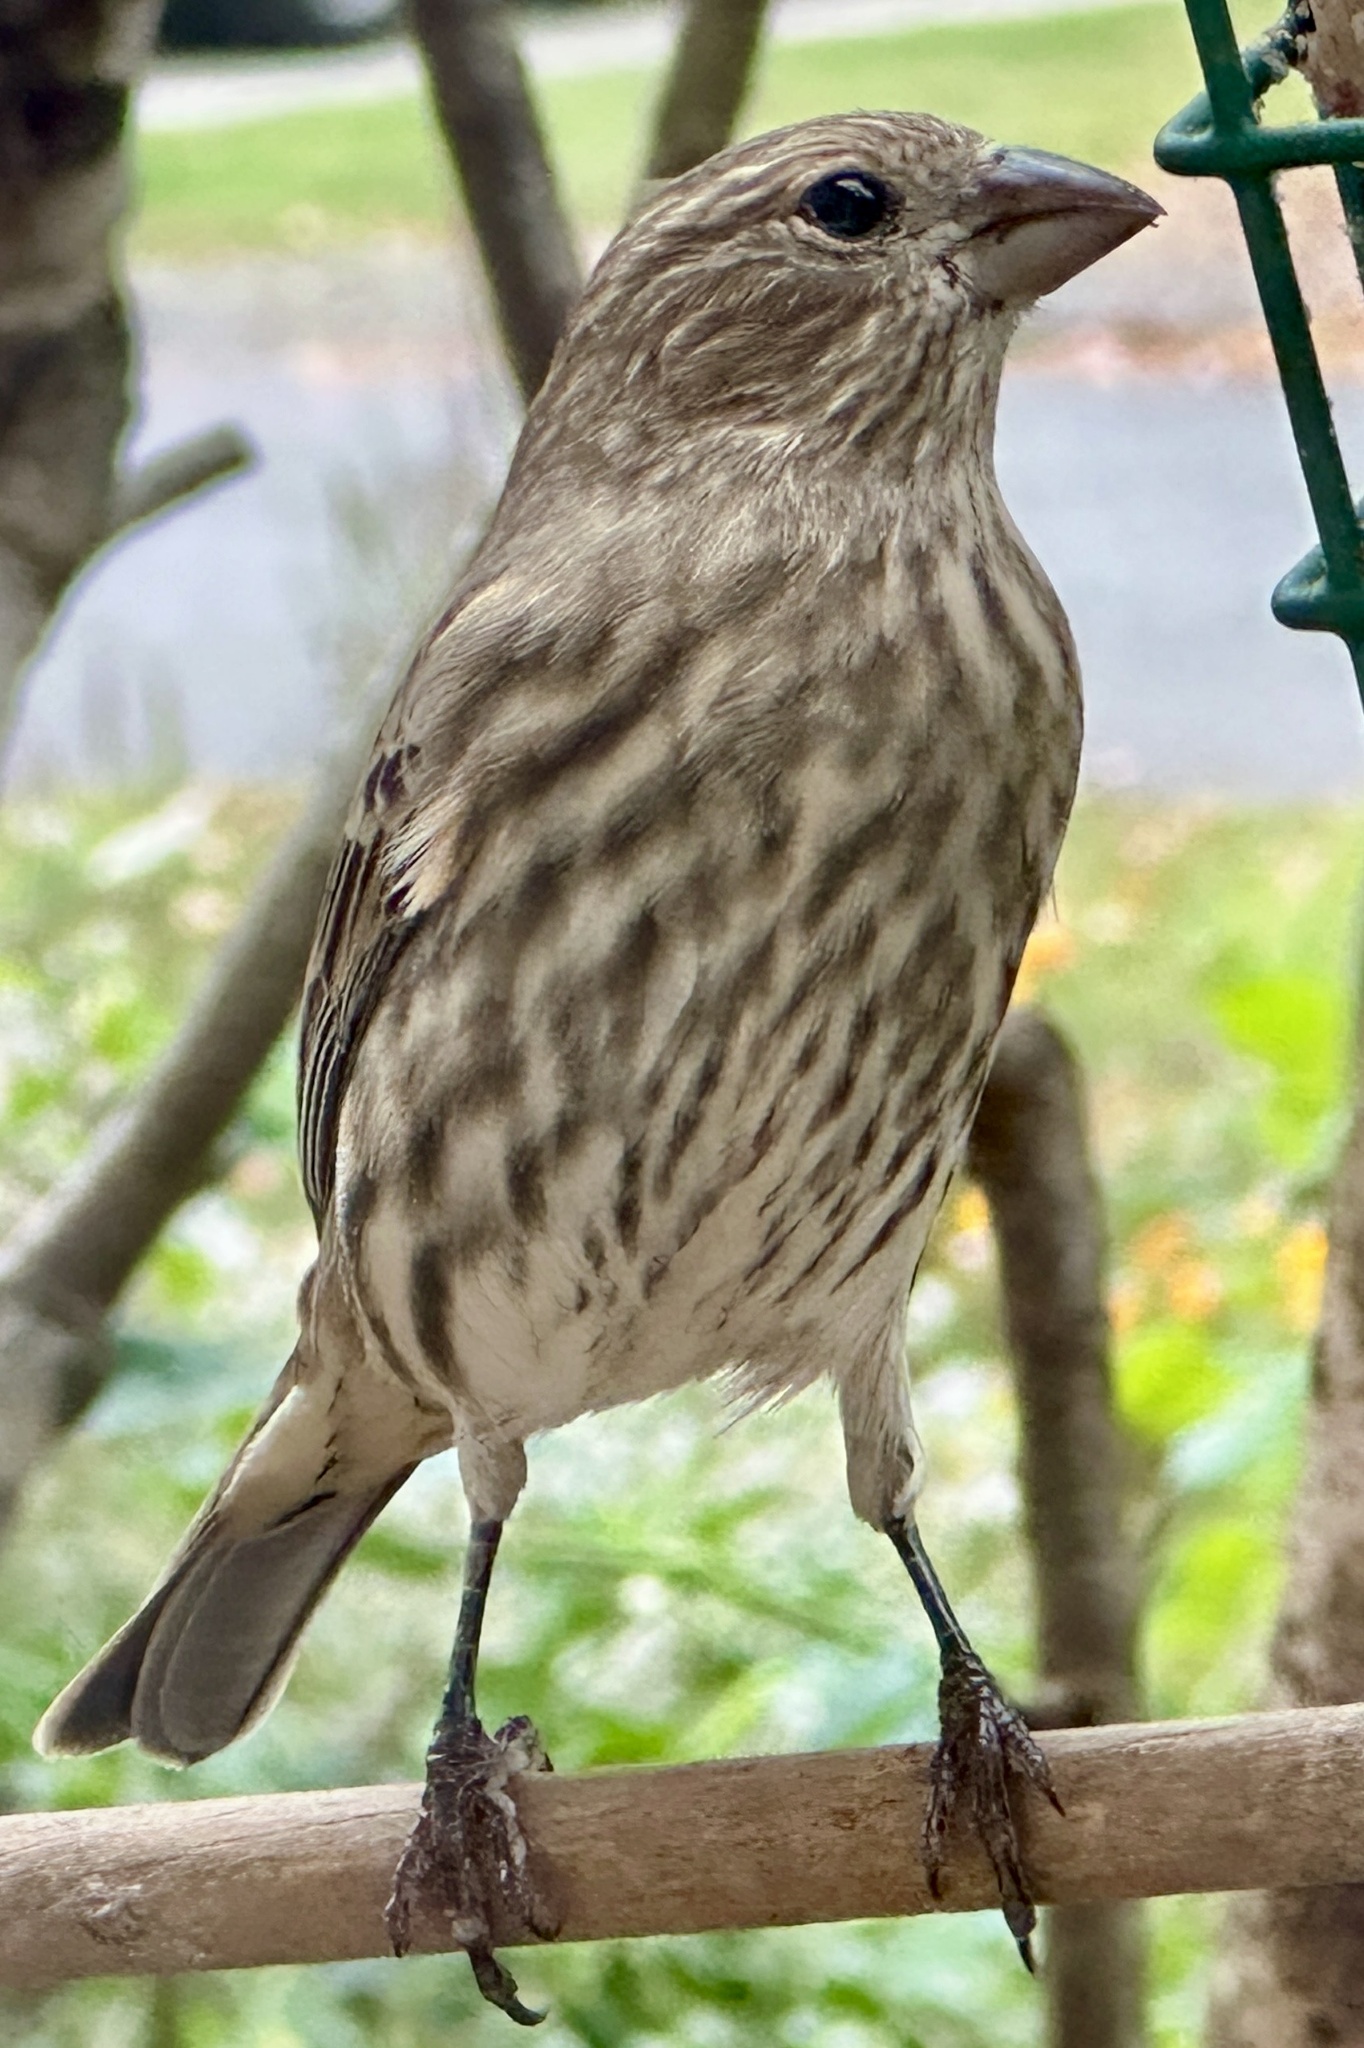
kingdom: Animalia
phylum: Chordata
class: Aves
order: Passeriformes
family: Fringillidae
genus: Haemorhous
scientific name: Haemorhous mexicanus
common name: House finch
